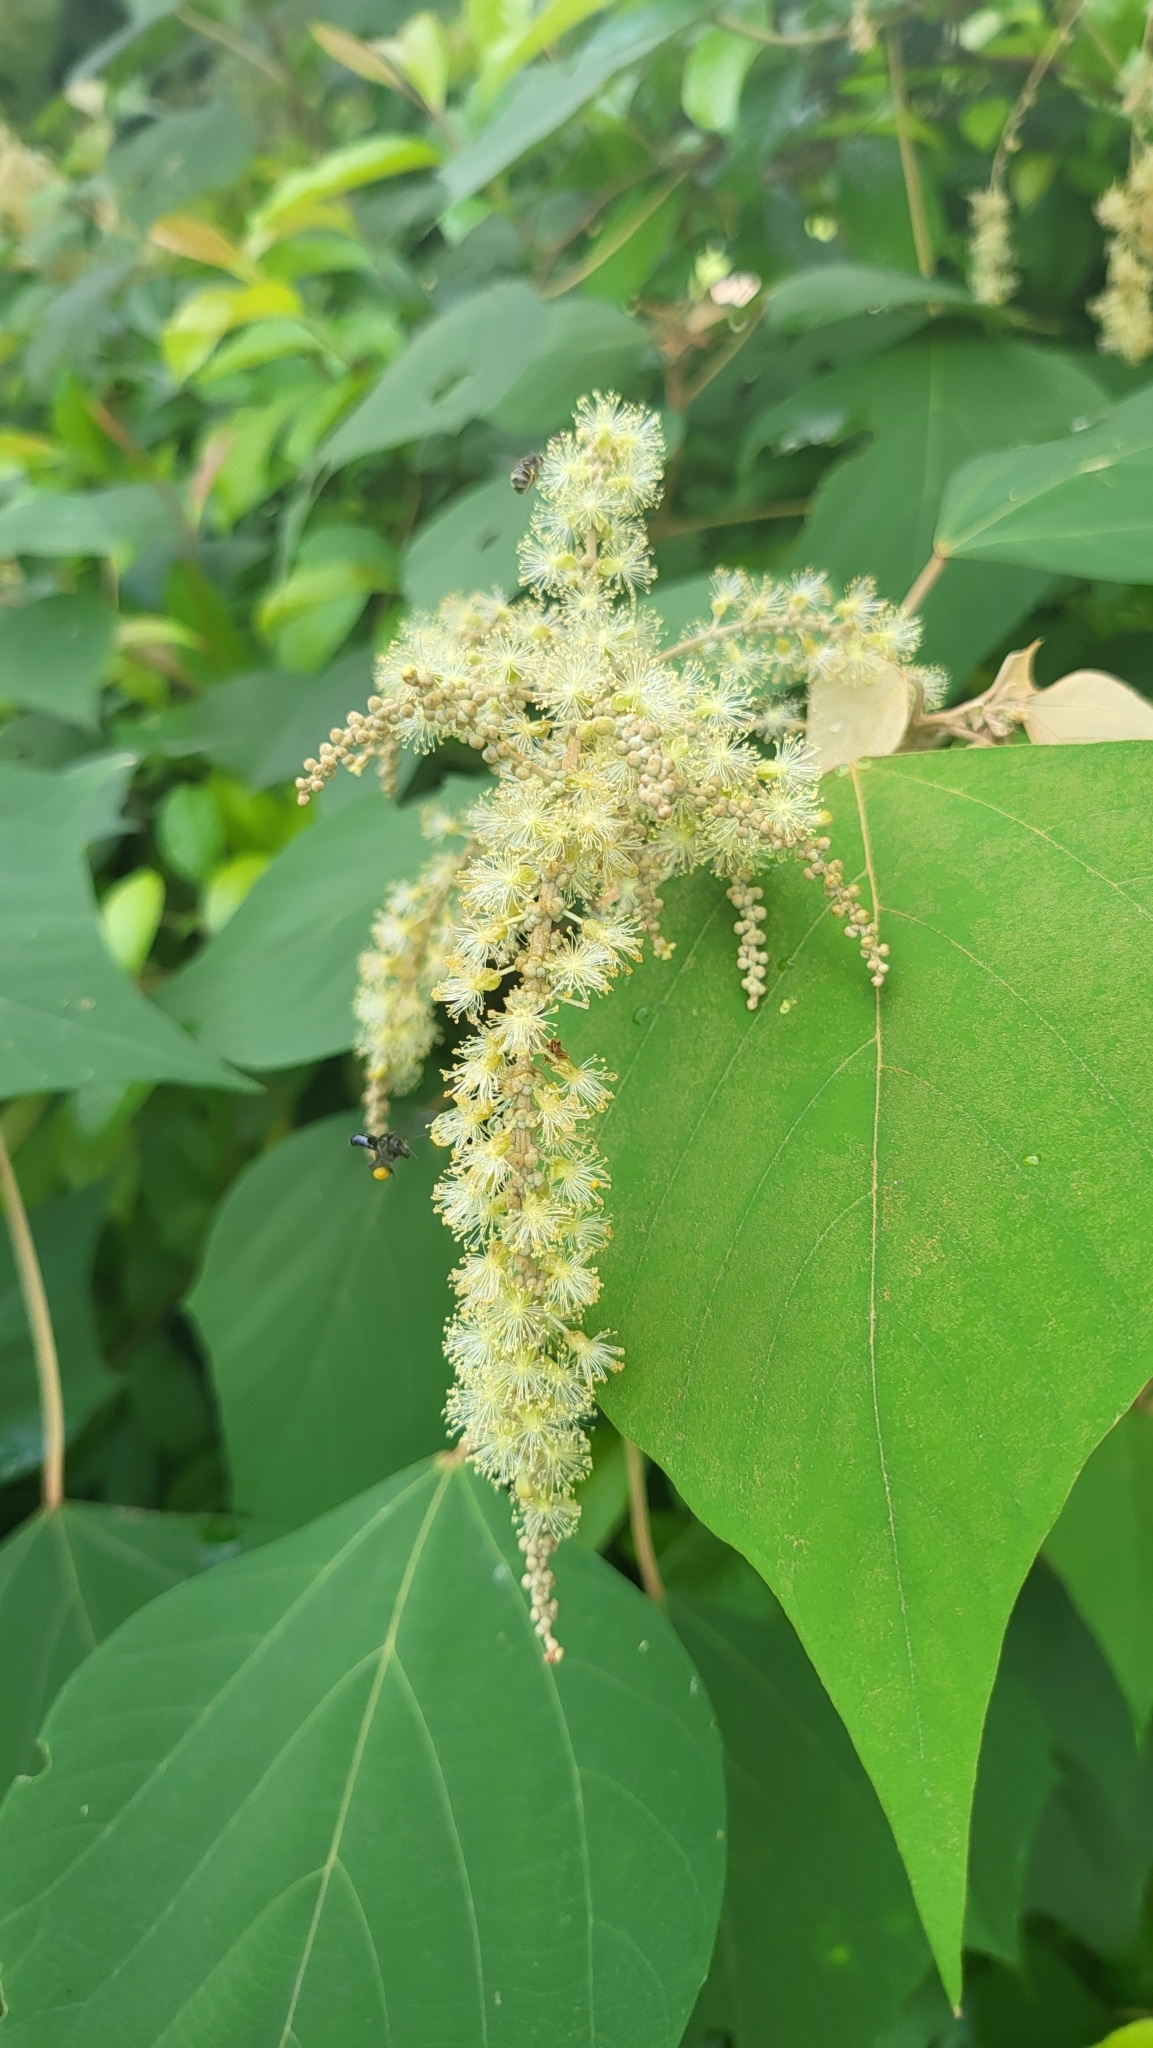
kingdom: Plantae
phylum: Tracheophyta
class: Magnoliopsida
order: Malpighiales
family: Euphorbiaceae
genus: Mallotus
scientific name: Mallotus paniculatus
